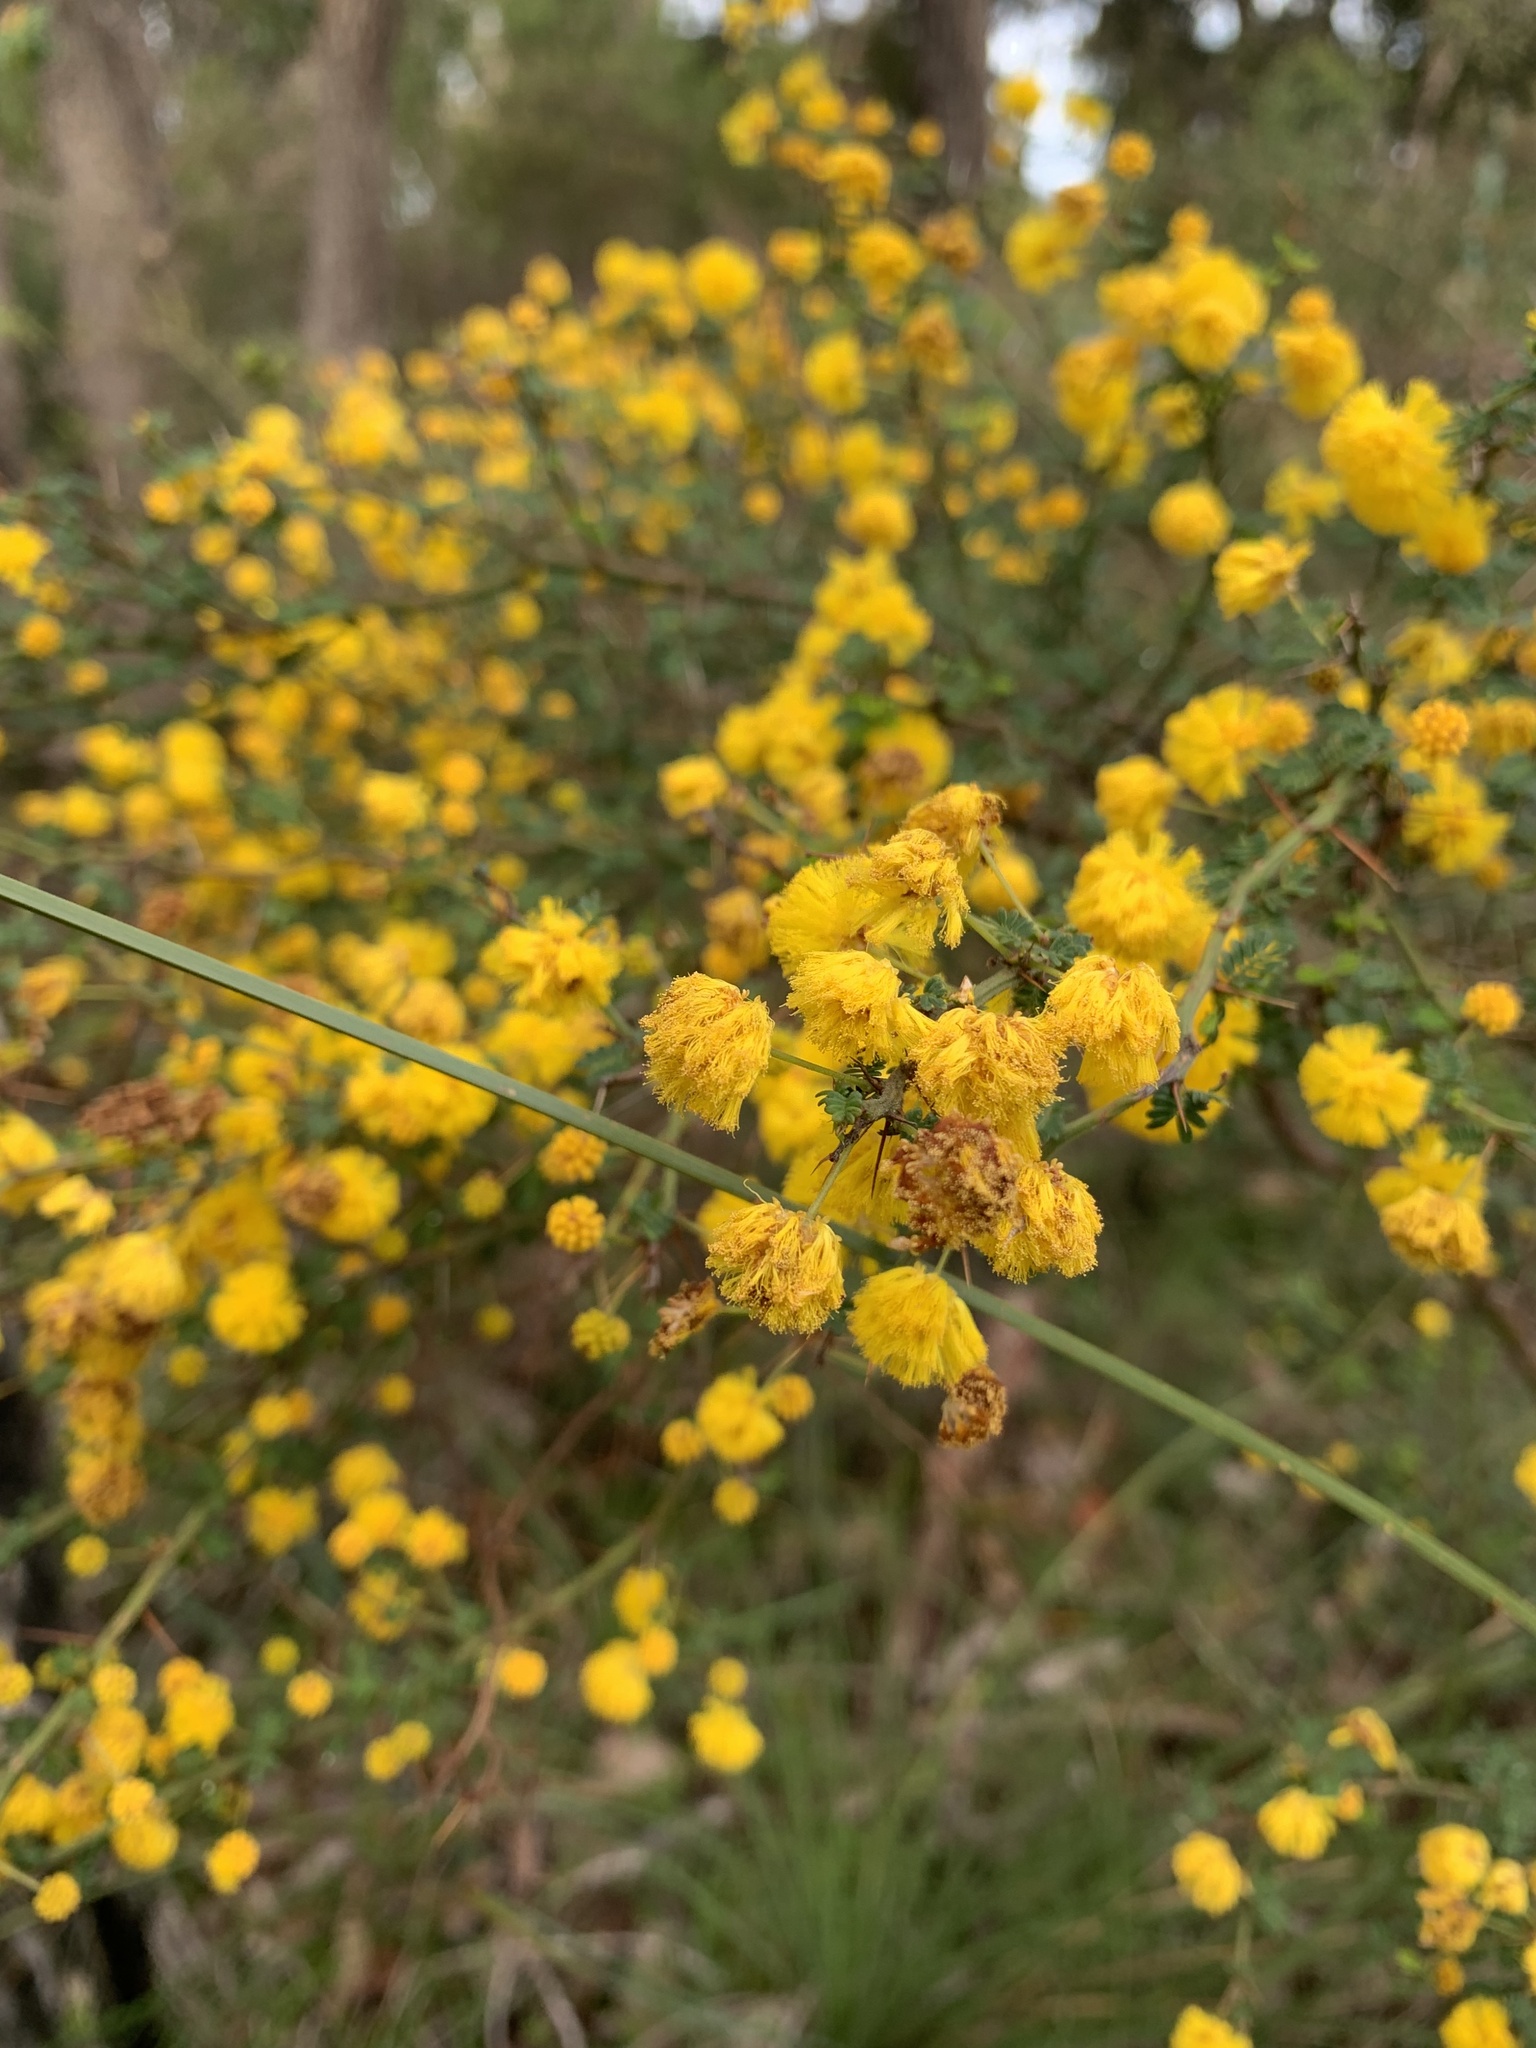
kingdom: Plantae
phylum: Tracheophyta
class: Magnoliopsida
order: Fabales
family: Fabaceae
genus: Acacia
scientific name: Acacia pulchella
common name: Prickly moses
